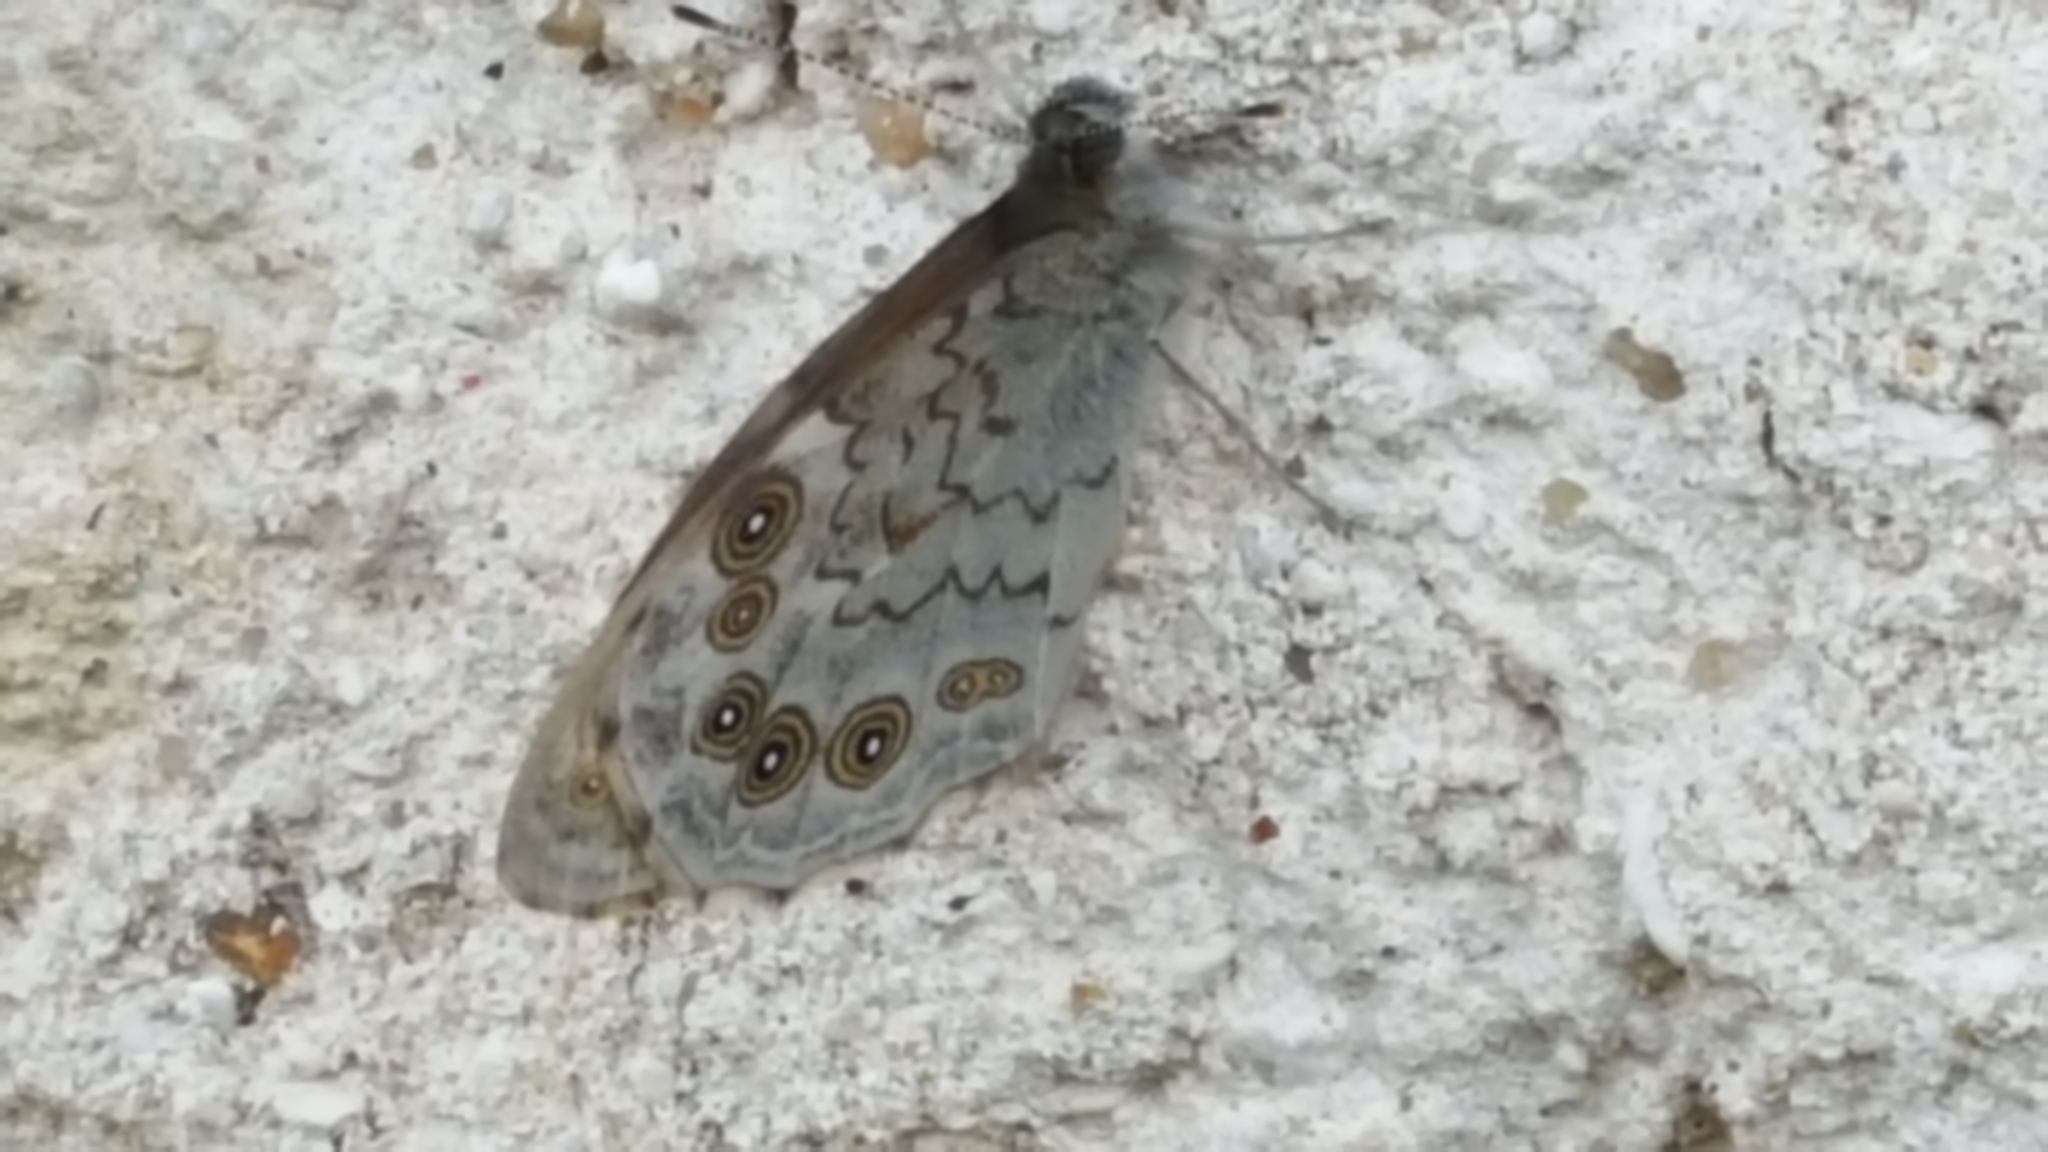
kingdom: Animalia
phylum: Arthropoda
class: Insecta
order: Lepidoptera
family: Nymphalidae
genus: Pararge
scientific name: Pararge Lasiommata maera
